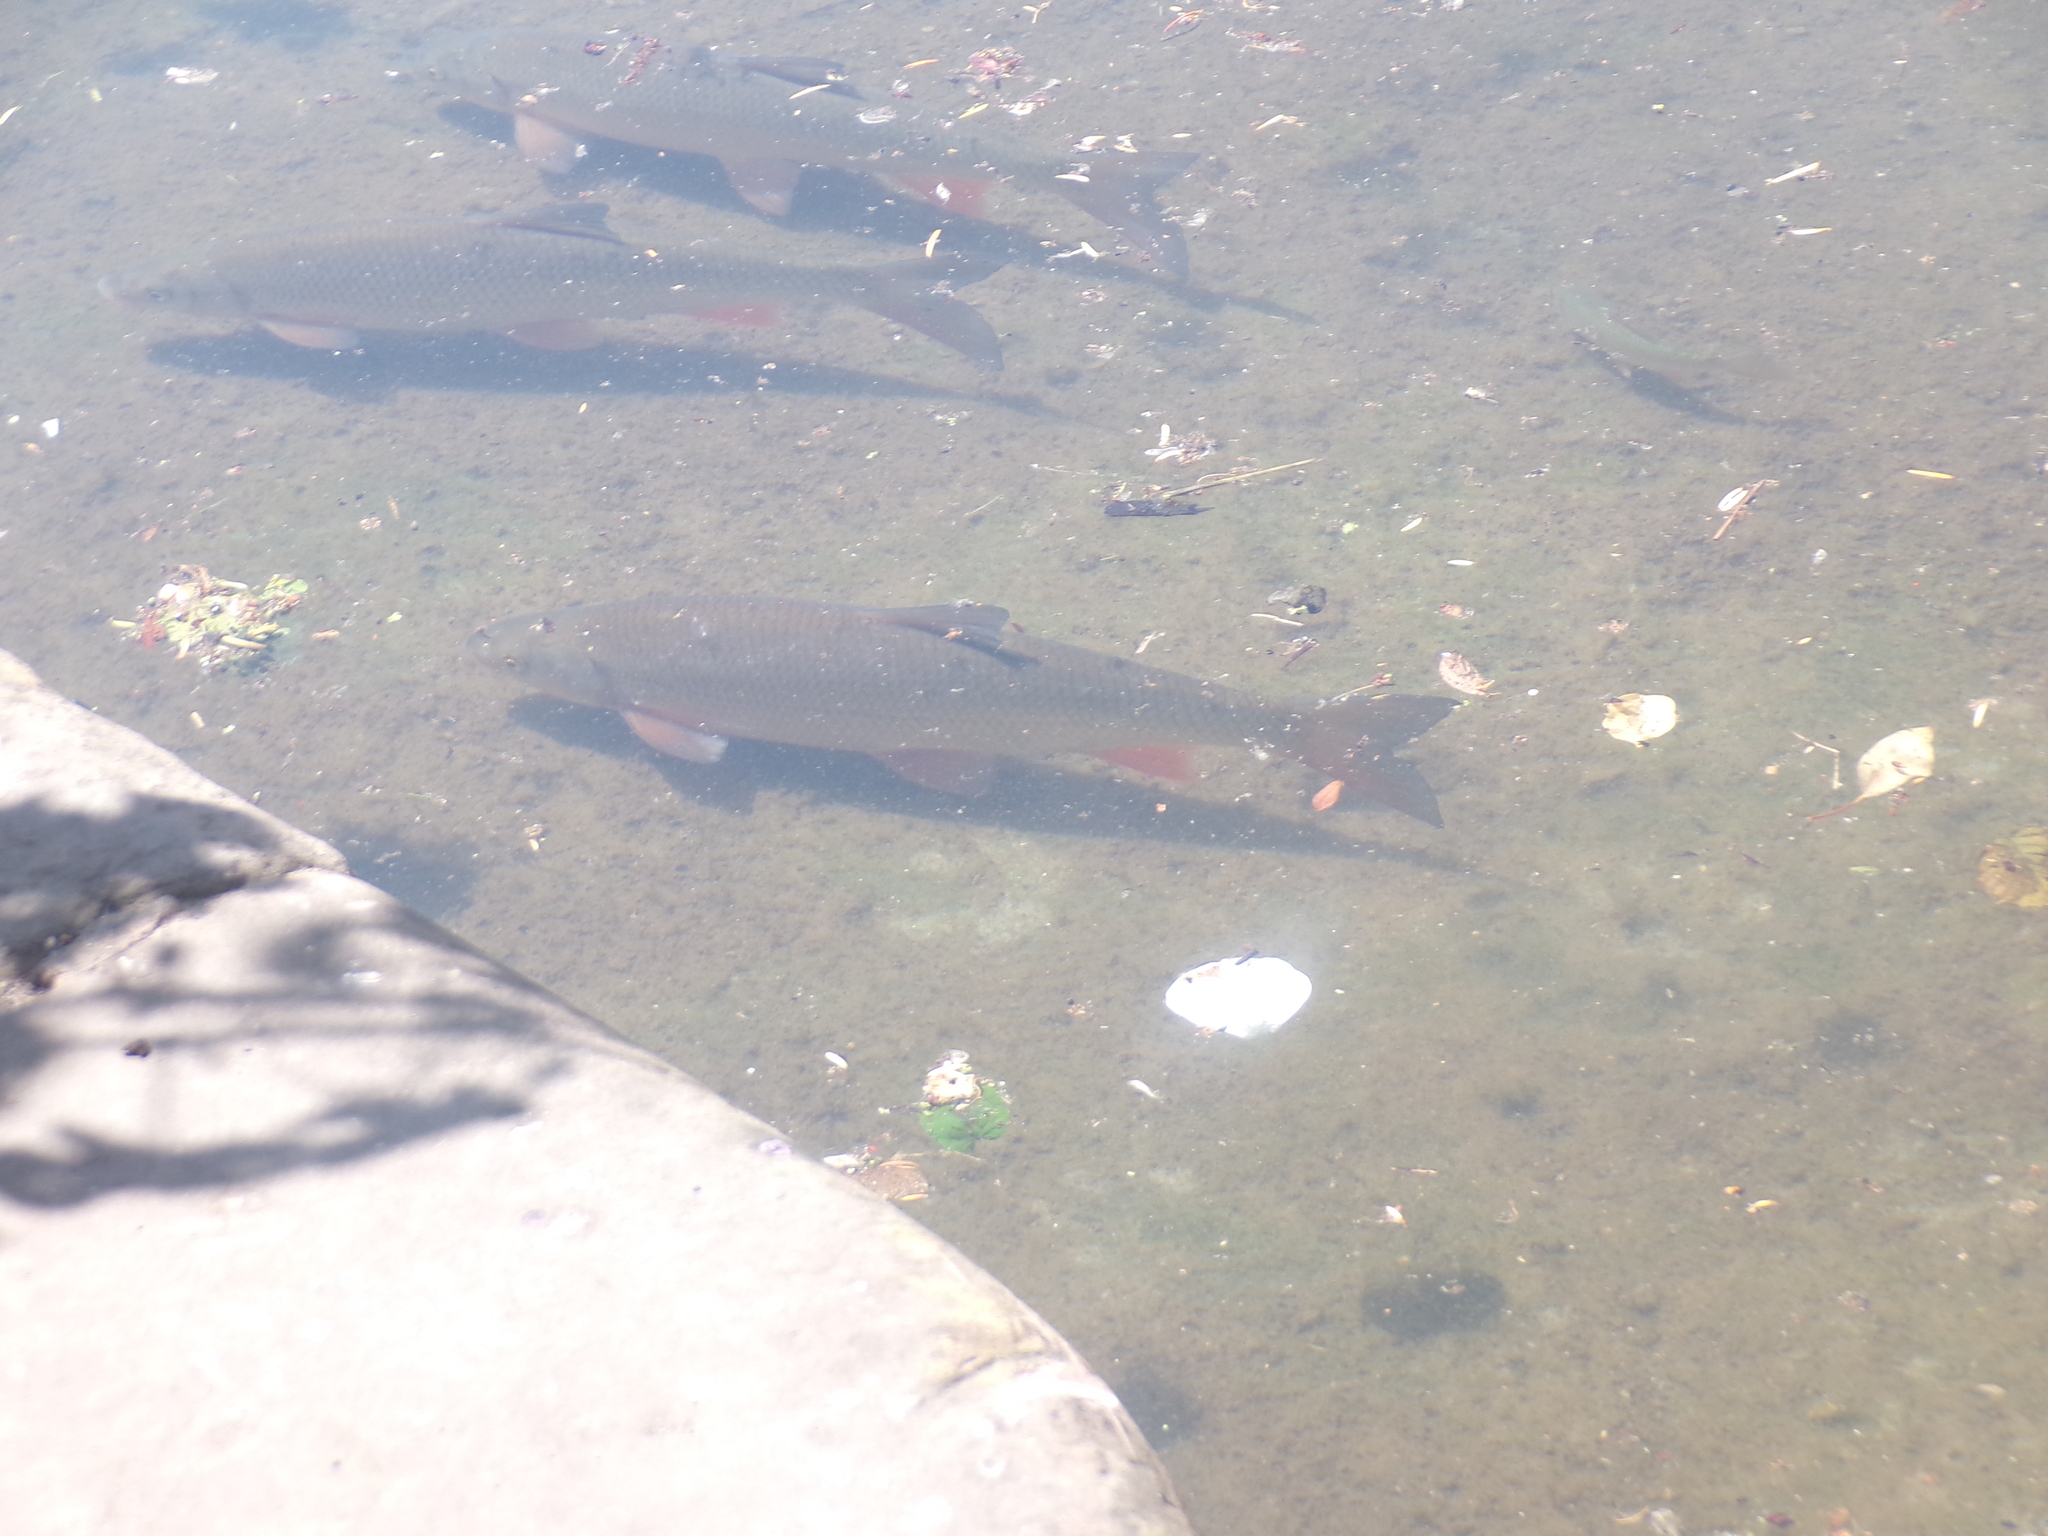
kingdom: Animalia
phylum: Chordata
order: Cypriniformes
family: Cyprinidae
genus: Chondrostoma
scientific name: Chondrostoma nasus
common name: Nase
